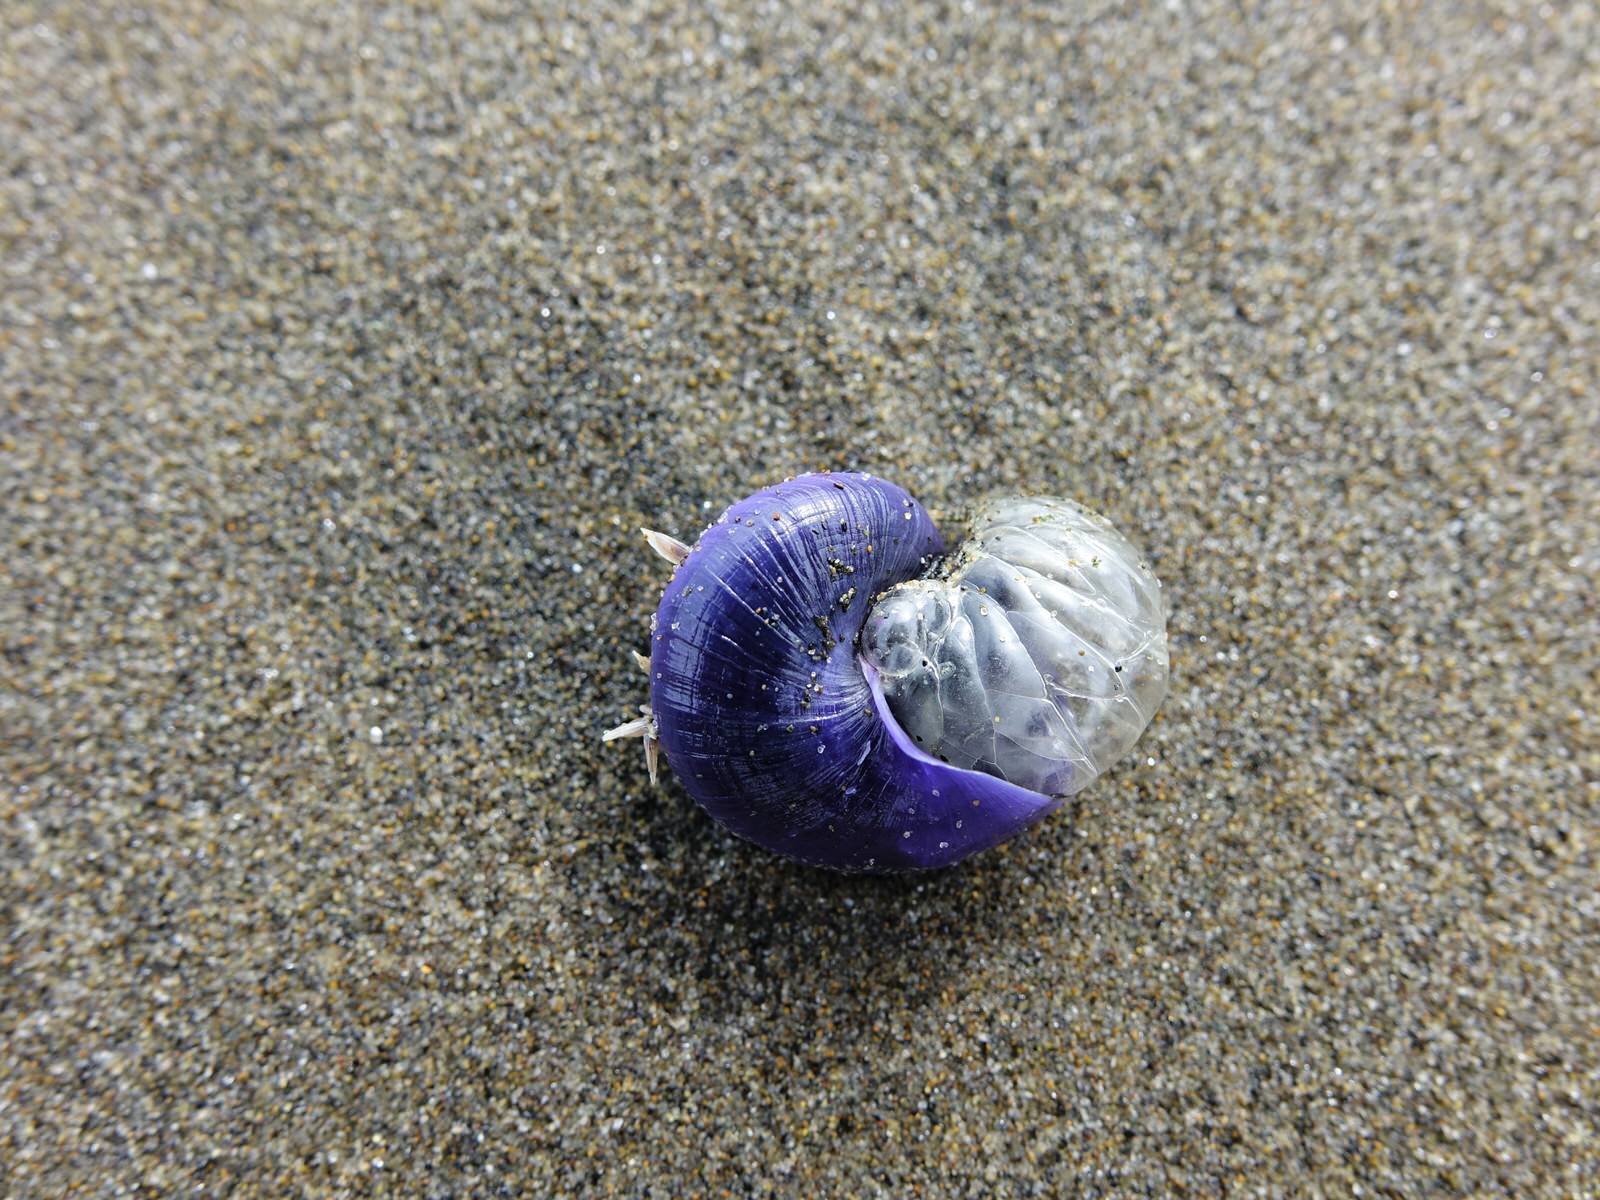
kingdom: Animalia
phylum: Mollusca
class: Gastropoda
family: Epitoniidae
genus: Janthina
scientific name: Janthina janthina
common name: Common janthina
